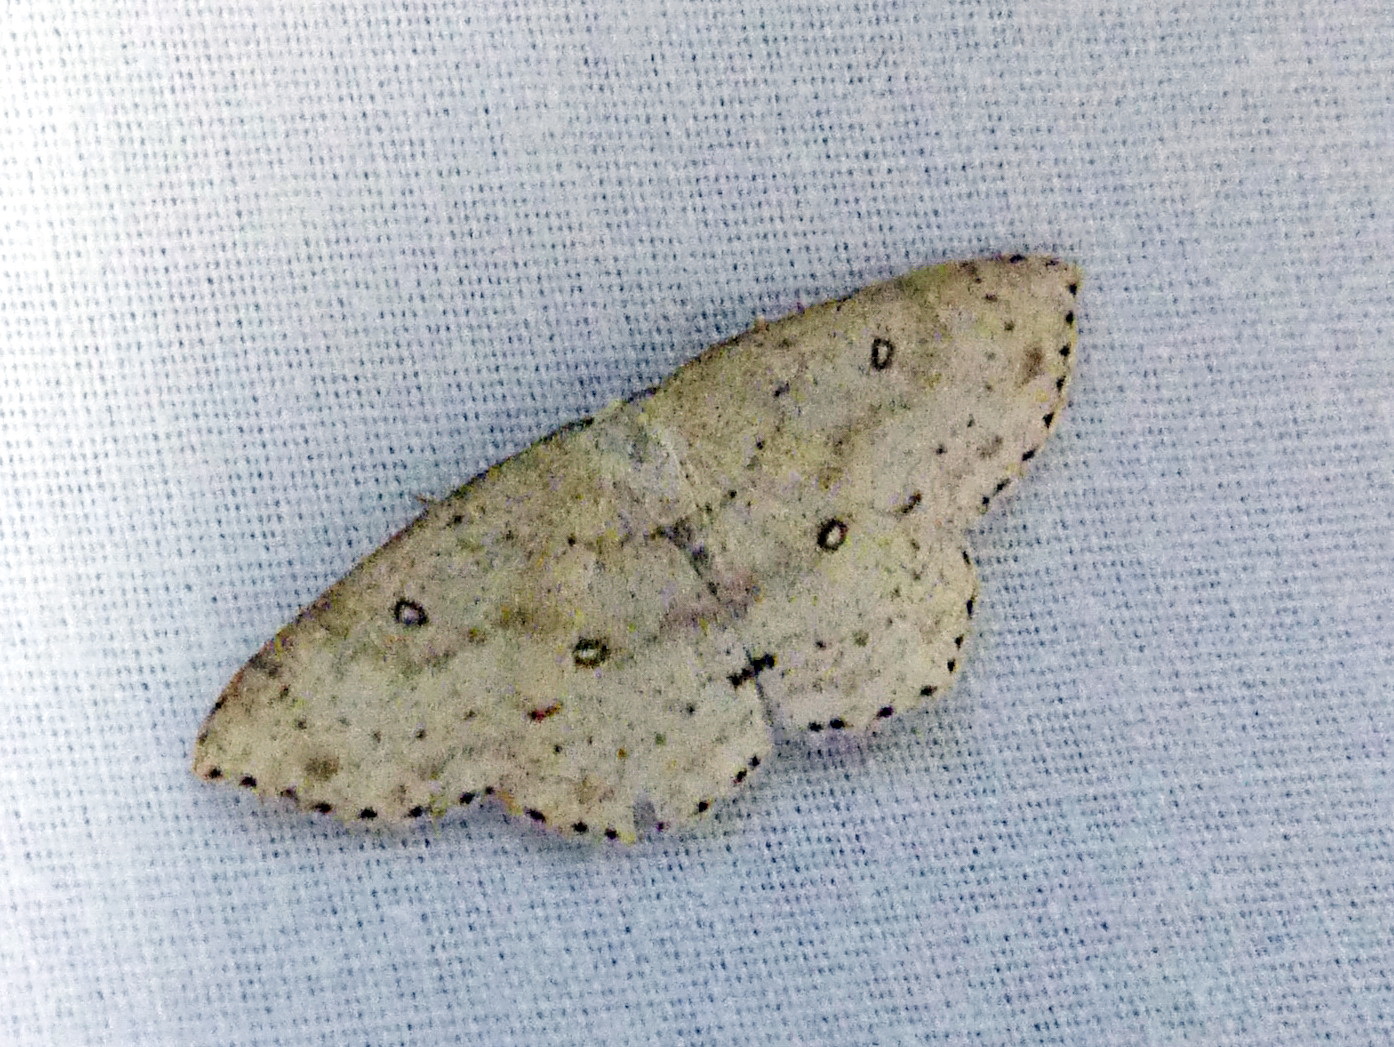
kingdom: Animalia
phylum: Arthropoda
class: Insecta
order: Lepidoptera
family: Geometridae
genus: Cyclophora
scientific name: Cyclophora pendulinaria
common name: Sweet fern geometer
